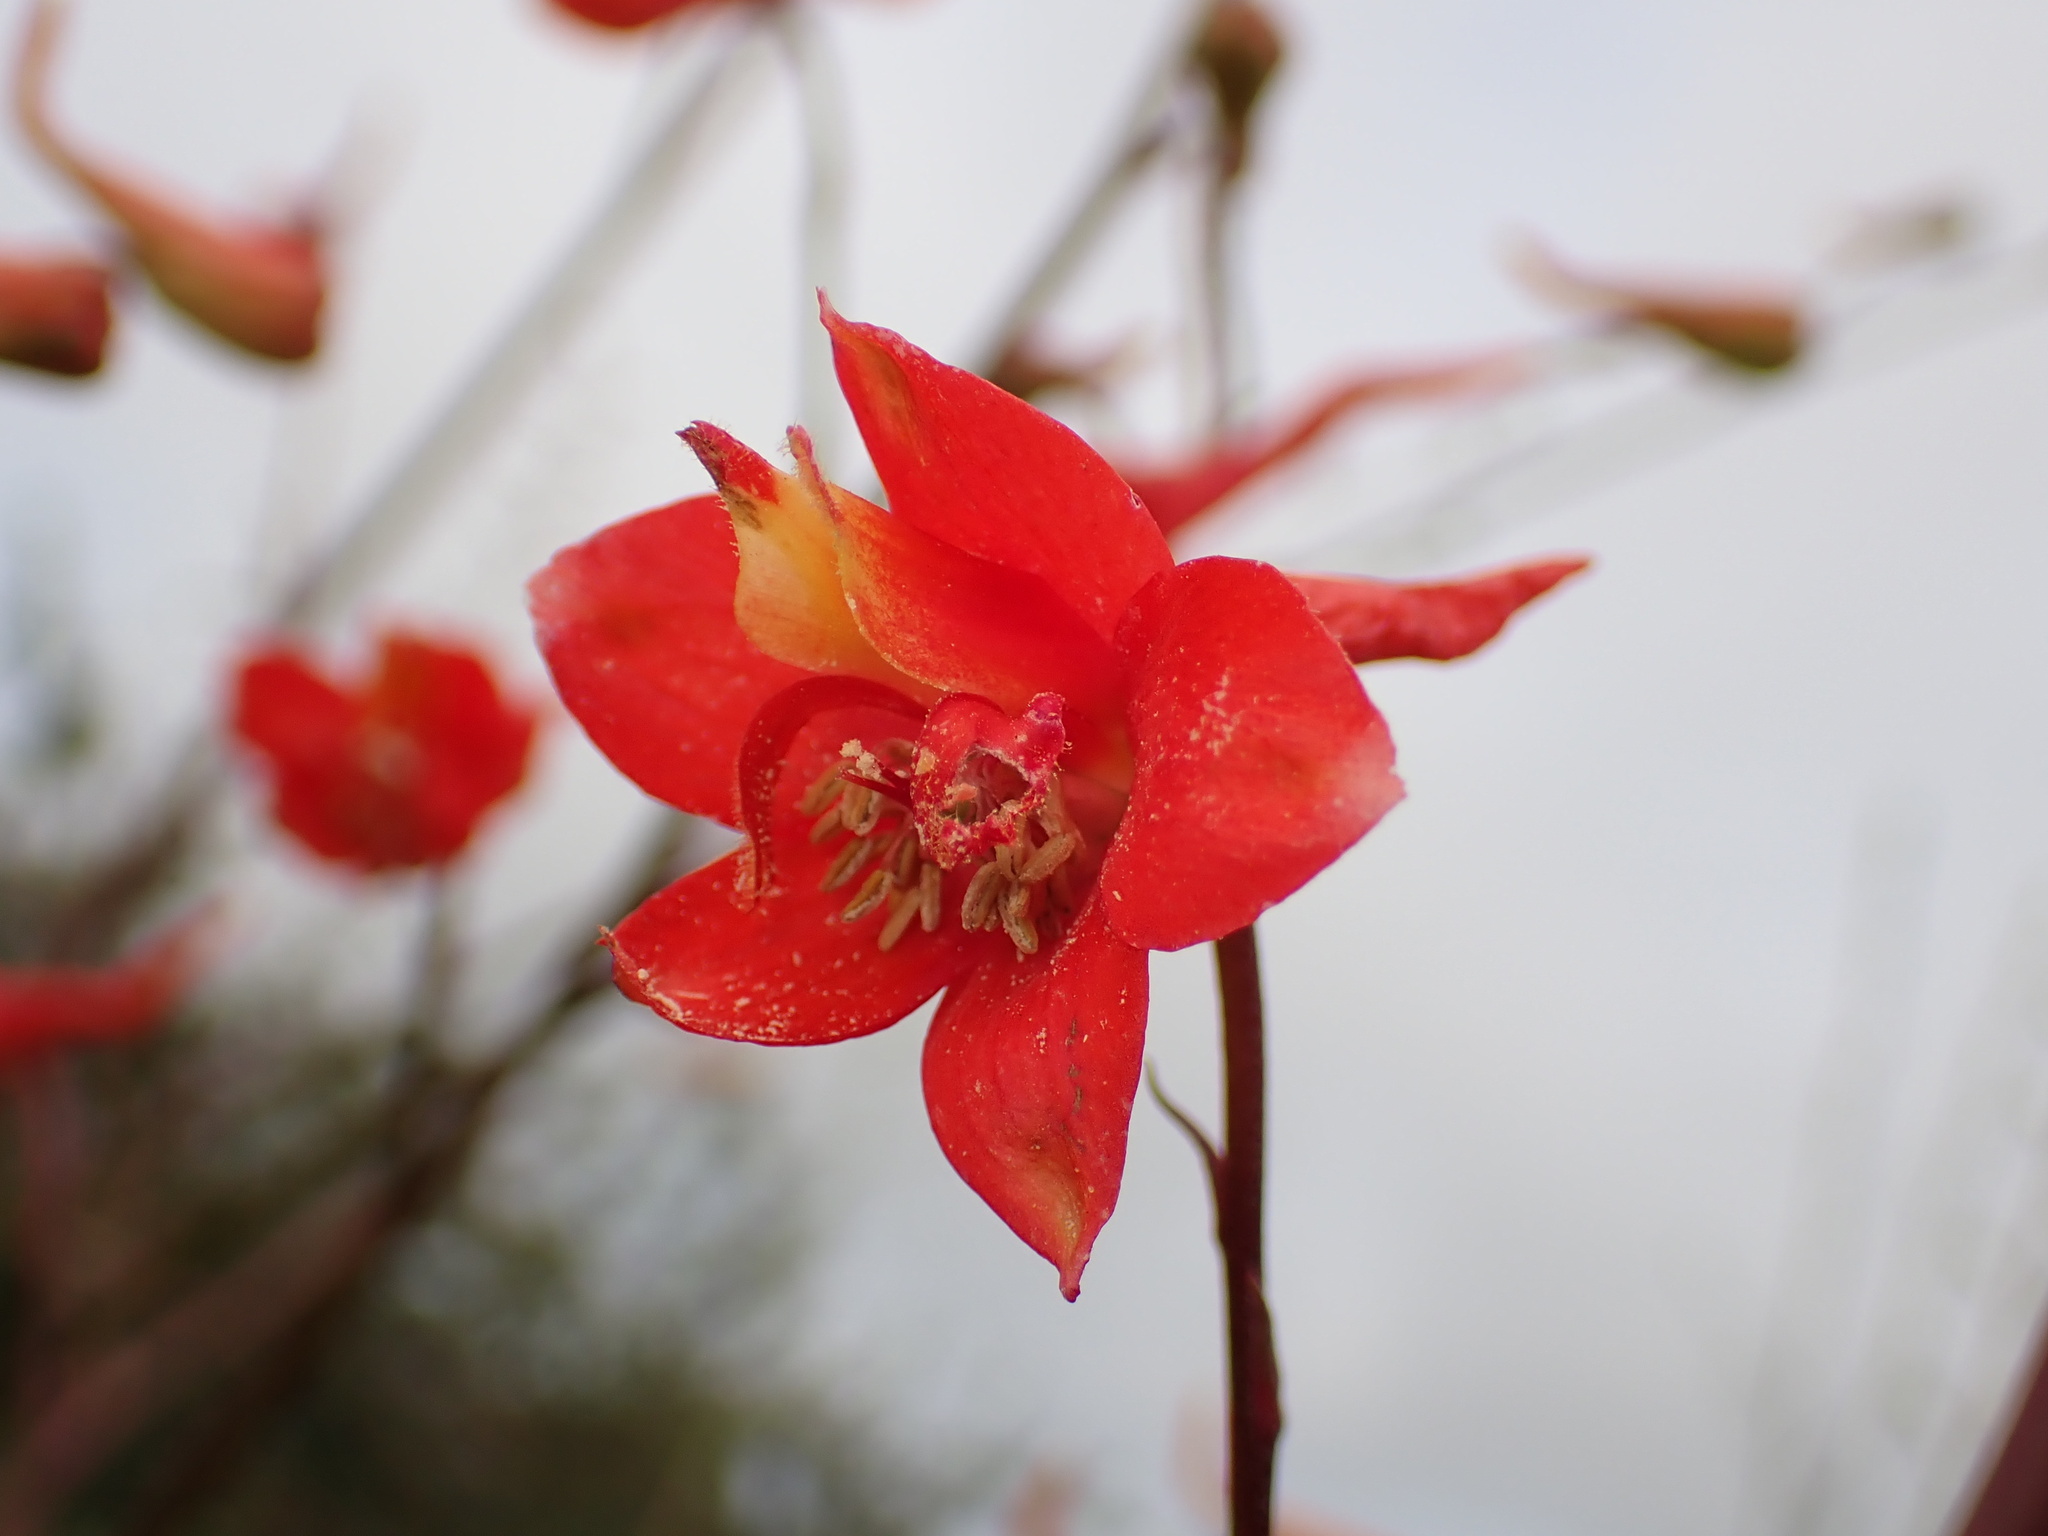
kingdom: Plantae
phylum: Tracheophyta
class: Magnoliopsida
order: Ranunculales
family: Ranunculaceae
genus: Delphinium
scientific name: Delphinium cardinale
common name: Scarlet larkspur
